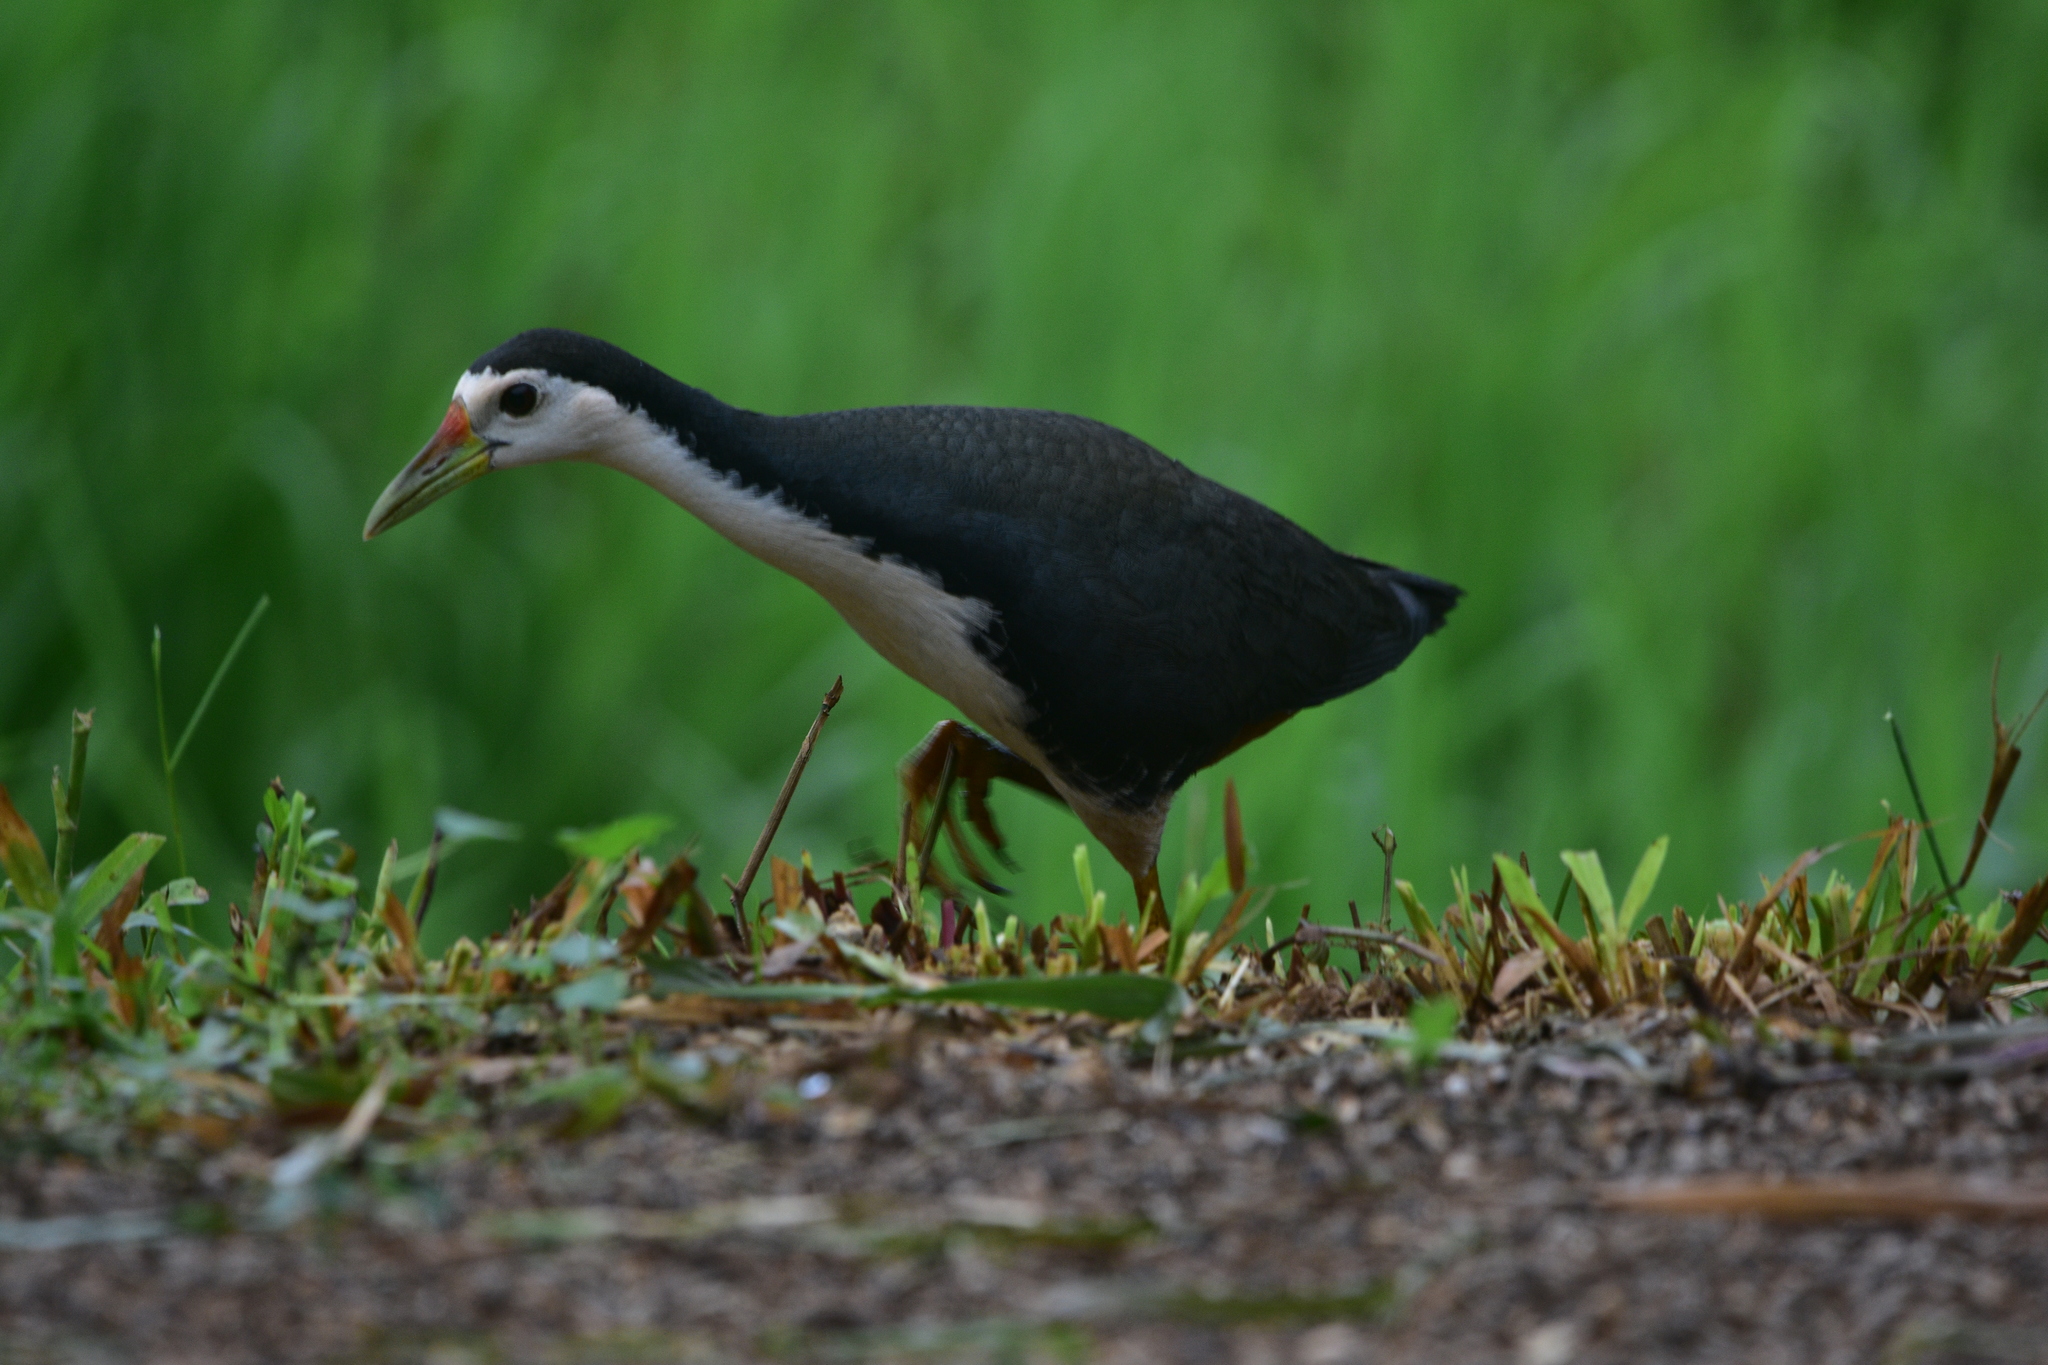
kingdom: Animalia
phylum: Chordata
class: Aves
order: Gruiformes
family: Rallidae
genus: Amaurornis
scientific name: Amaurornis phoenicurus
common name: White-breasted waterhen
